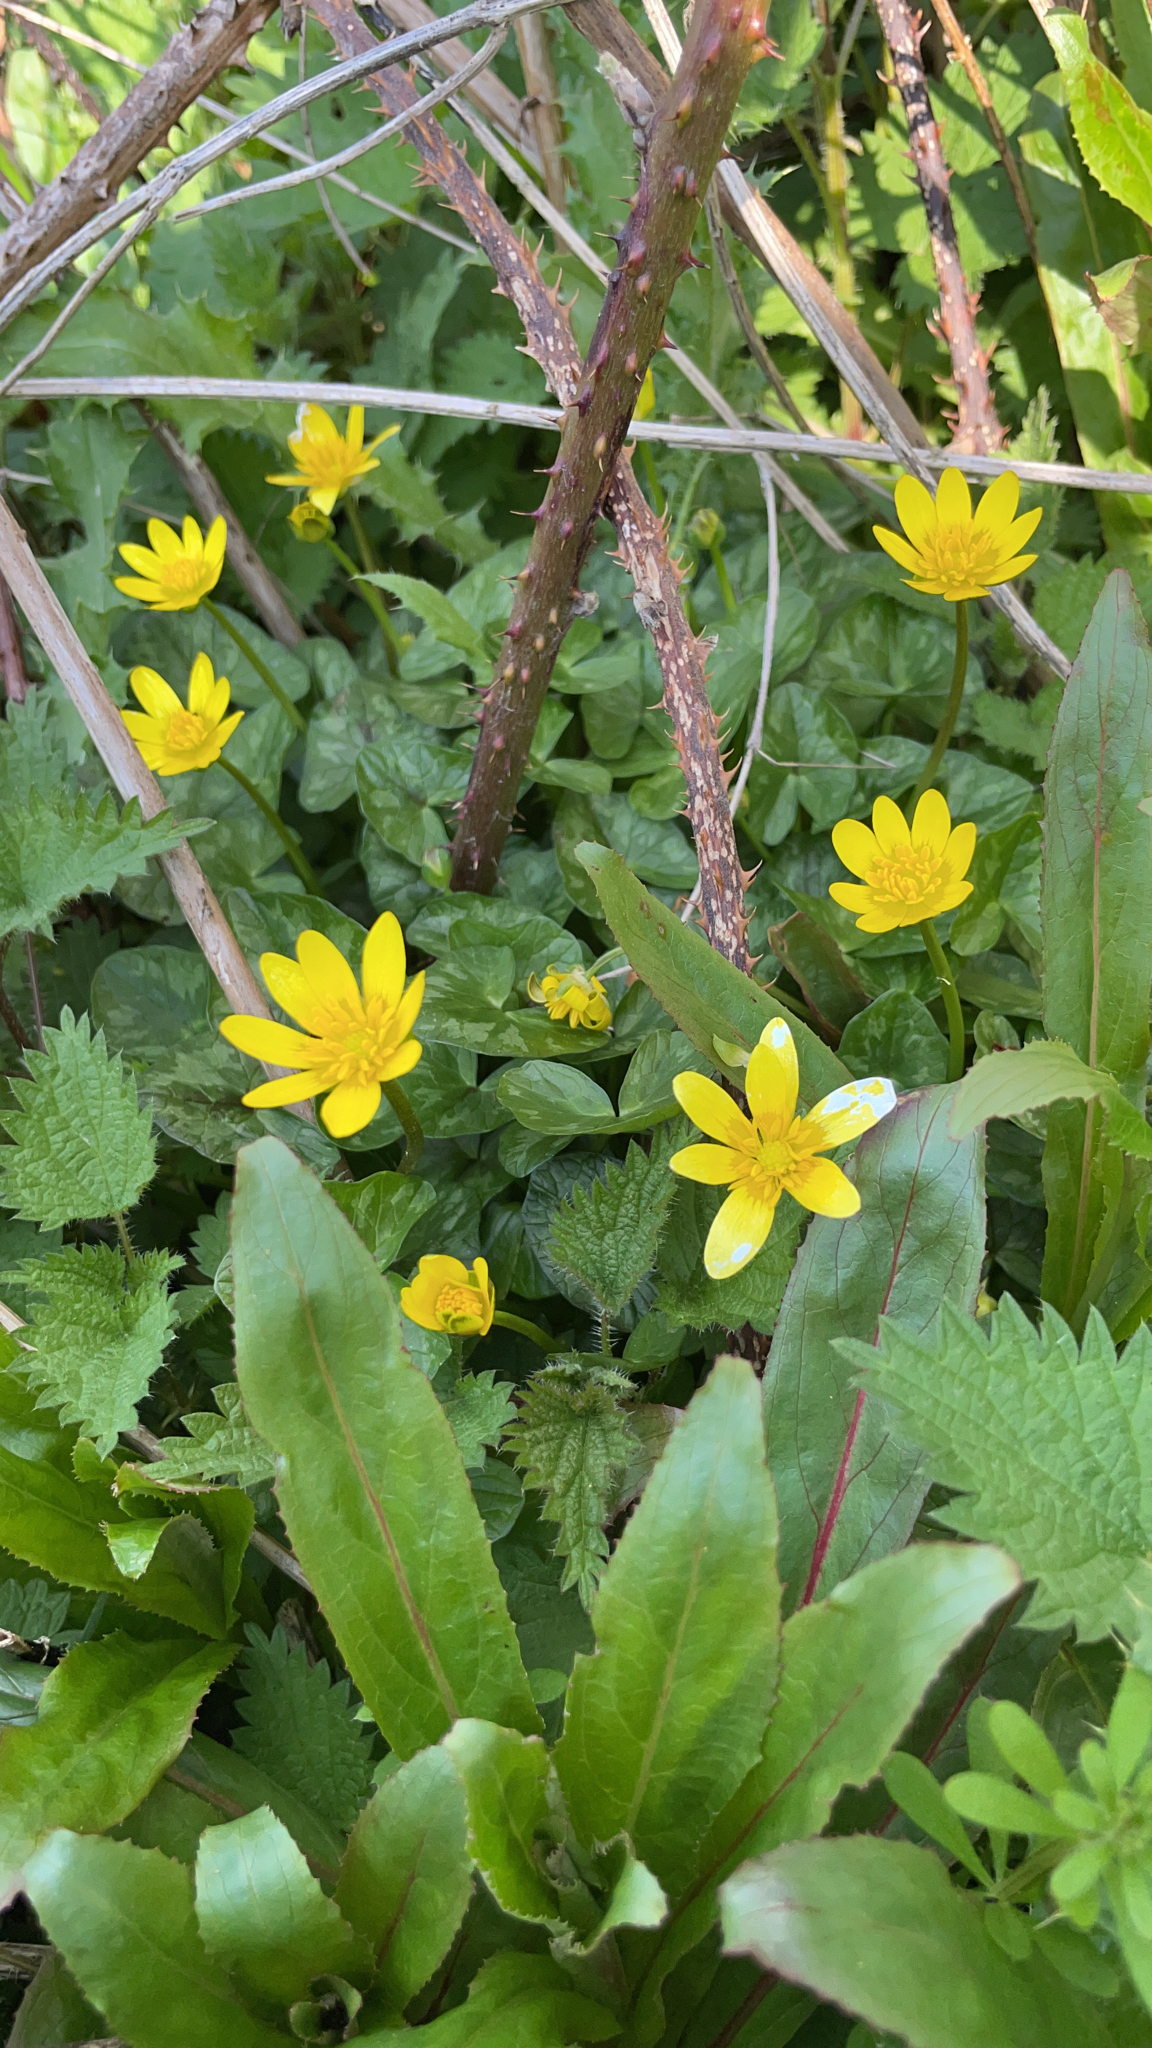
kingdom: Plantae
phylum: Tracheophyta
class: Magnoliopsida
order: Ranunculales
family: Ranunculaceae
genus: Ficaria
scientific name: Ficaria verna
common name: Lesser celandine
